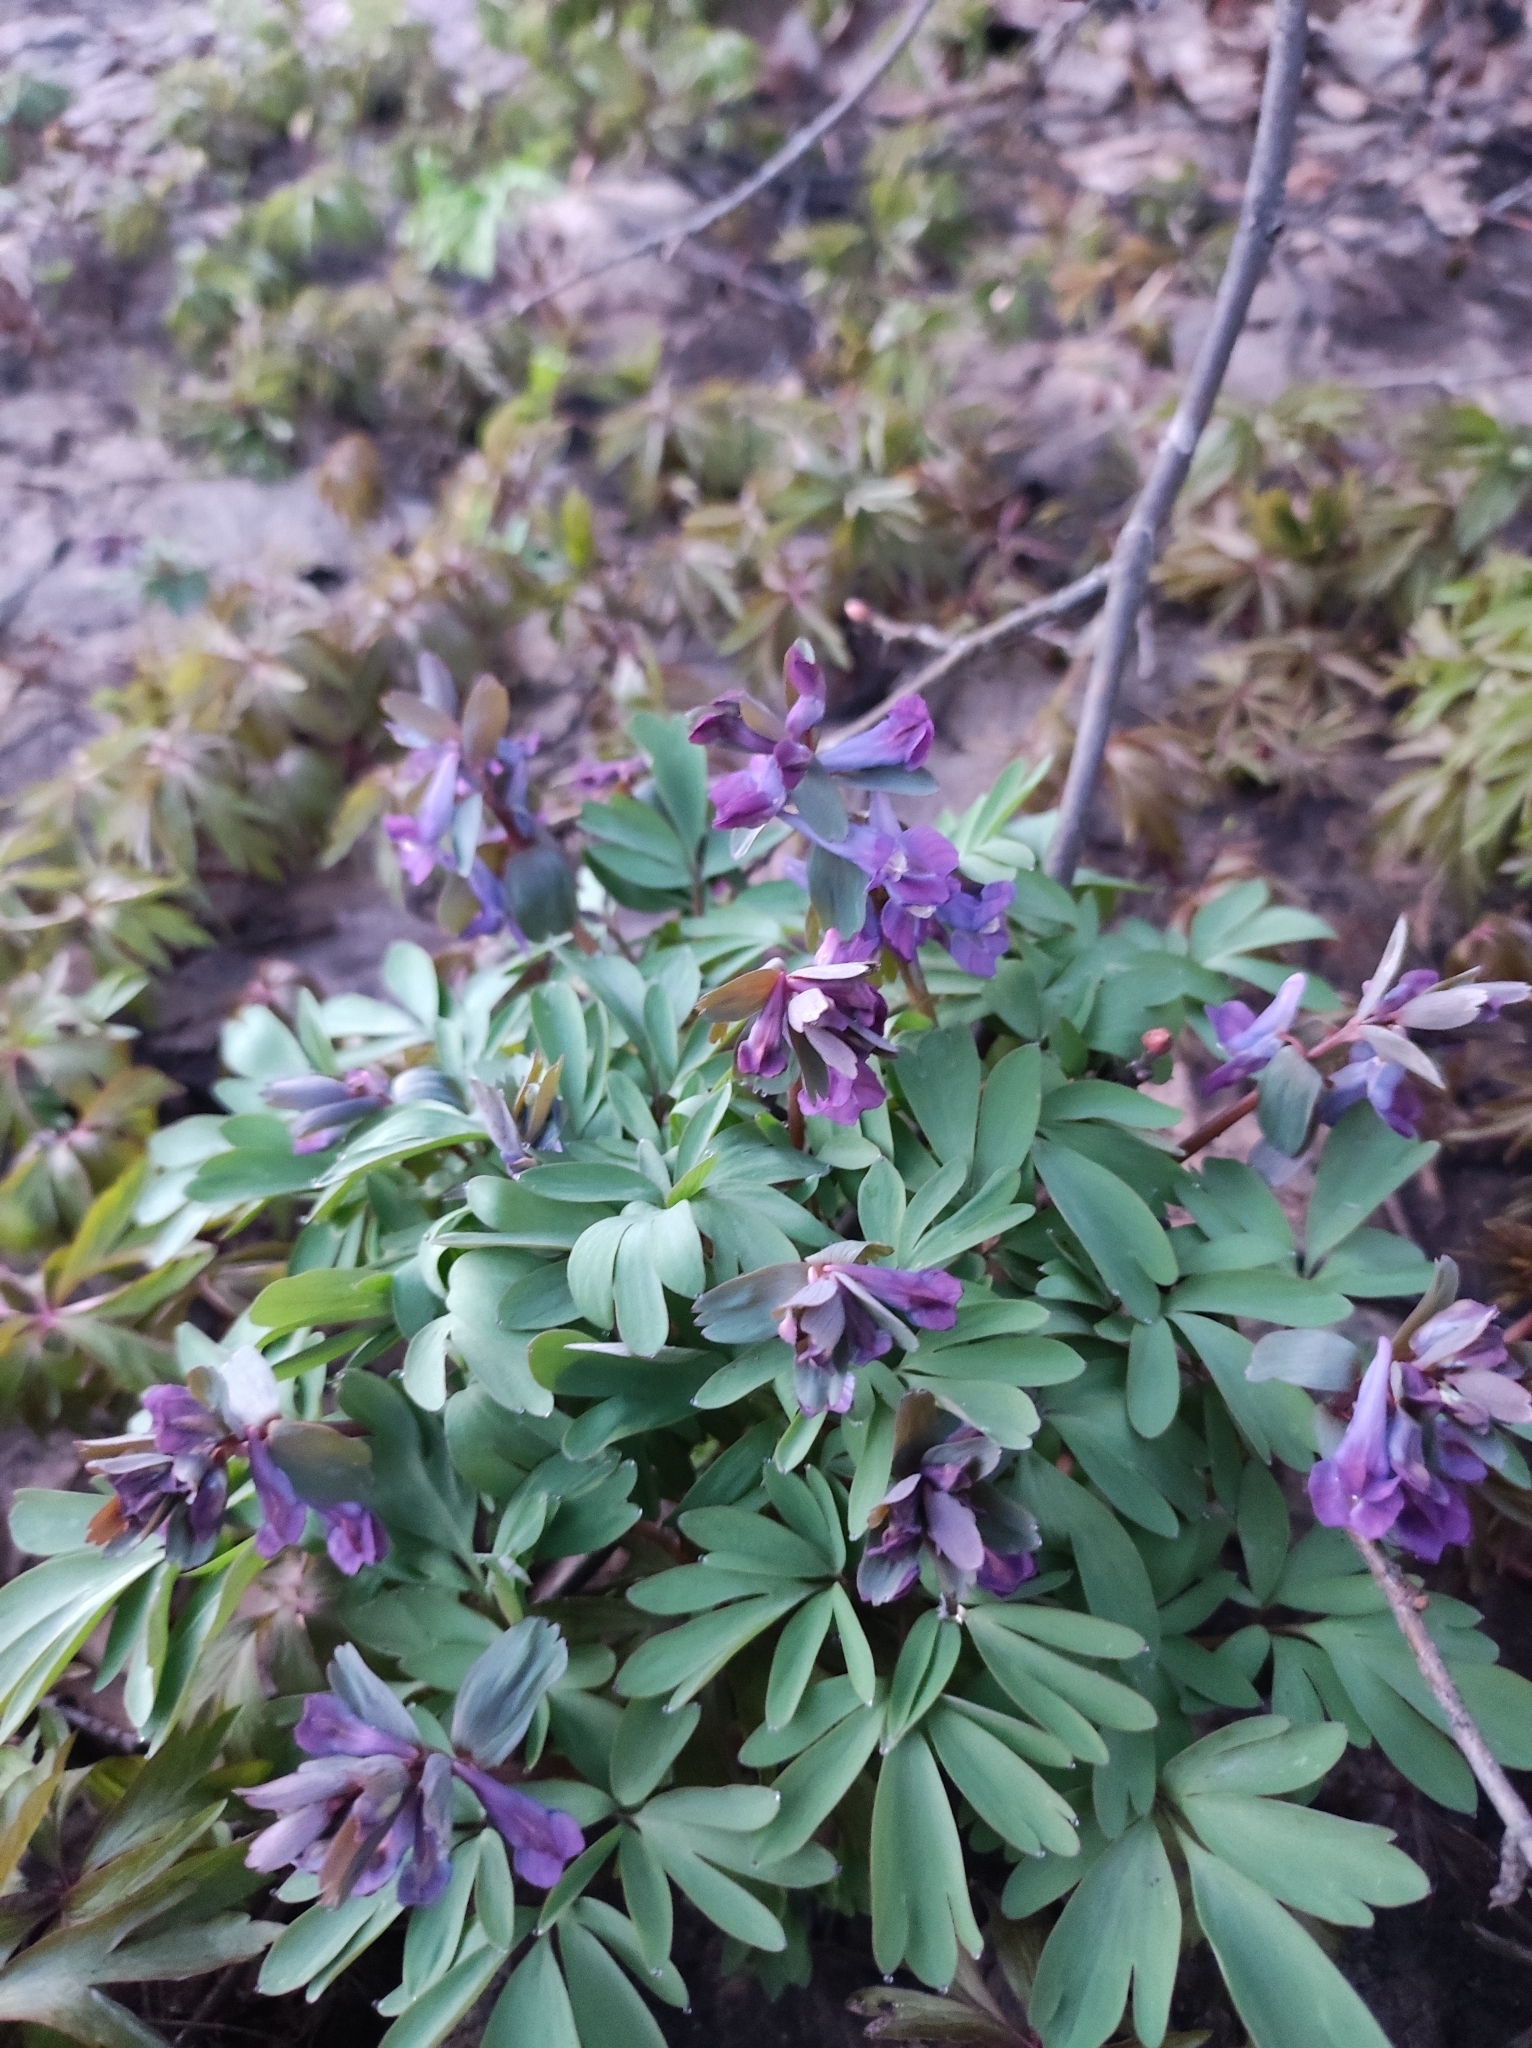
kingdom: Plantae
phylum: Tracheophyta
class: Magnoliopsida
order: Ranunculales
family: Papaveraceae
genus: Corydalis
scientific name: Corydalis solida
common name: Bird-in-a-bush
